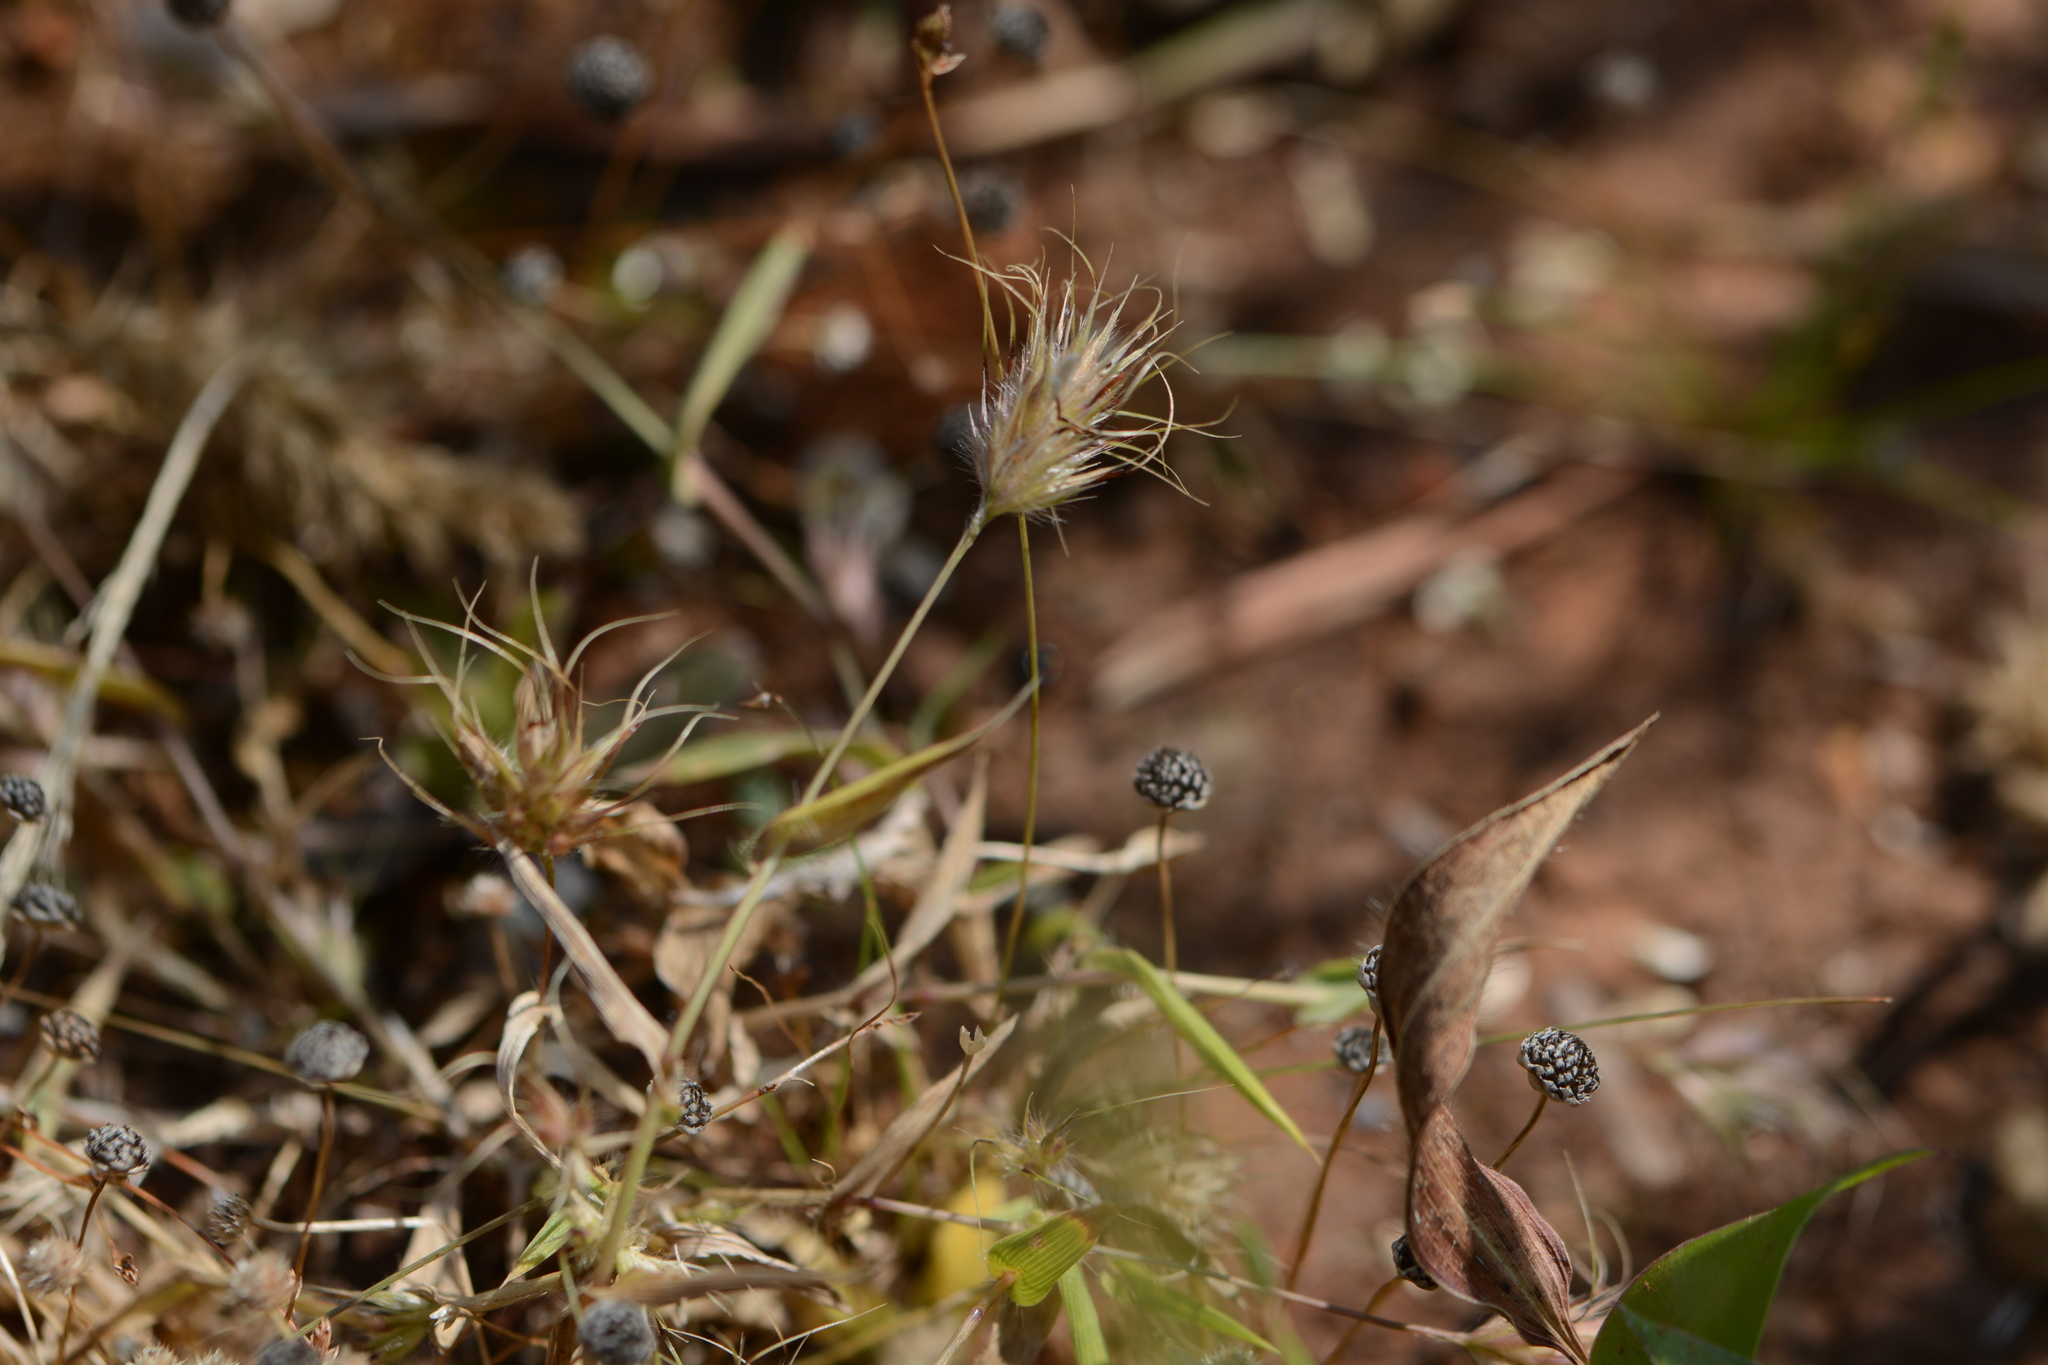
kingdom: Plantae
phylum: Tracheophyta
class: Liliopsida
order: Poales
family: Poaceae
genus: Jansenella
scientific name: Jansenella griffithiana
